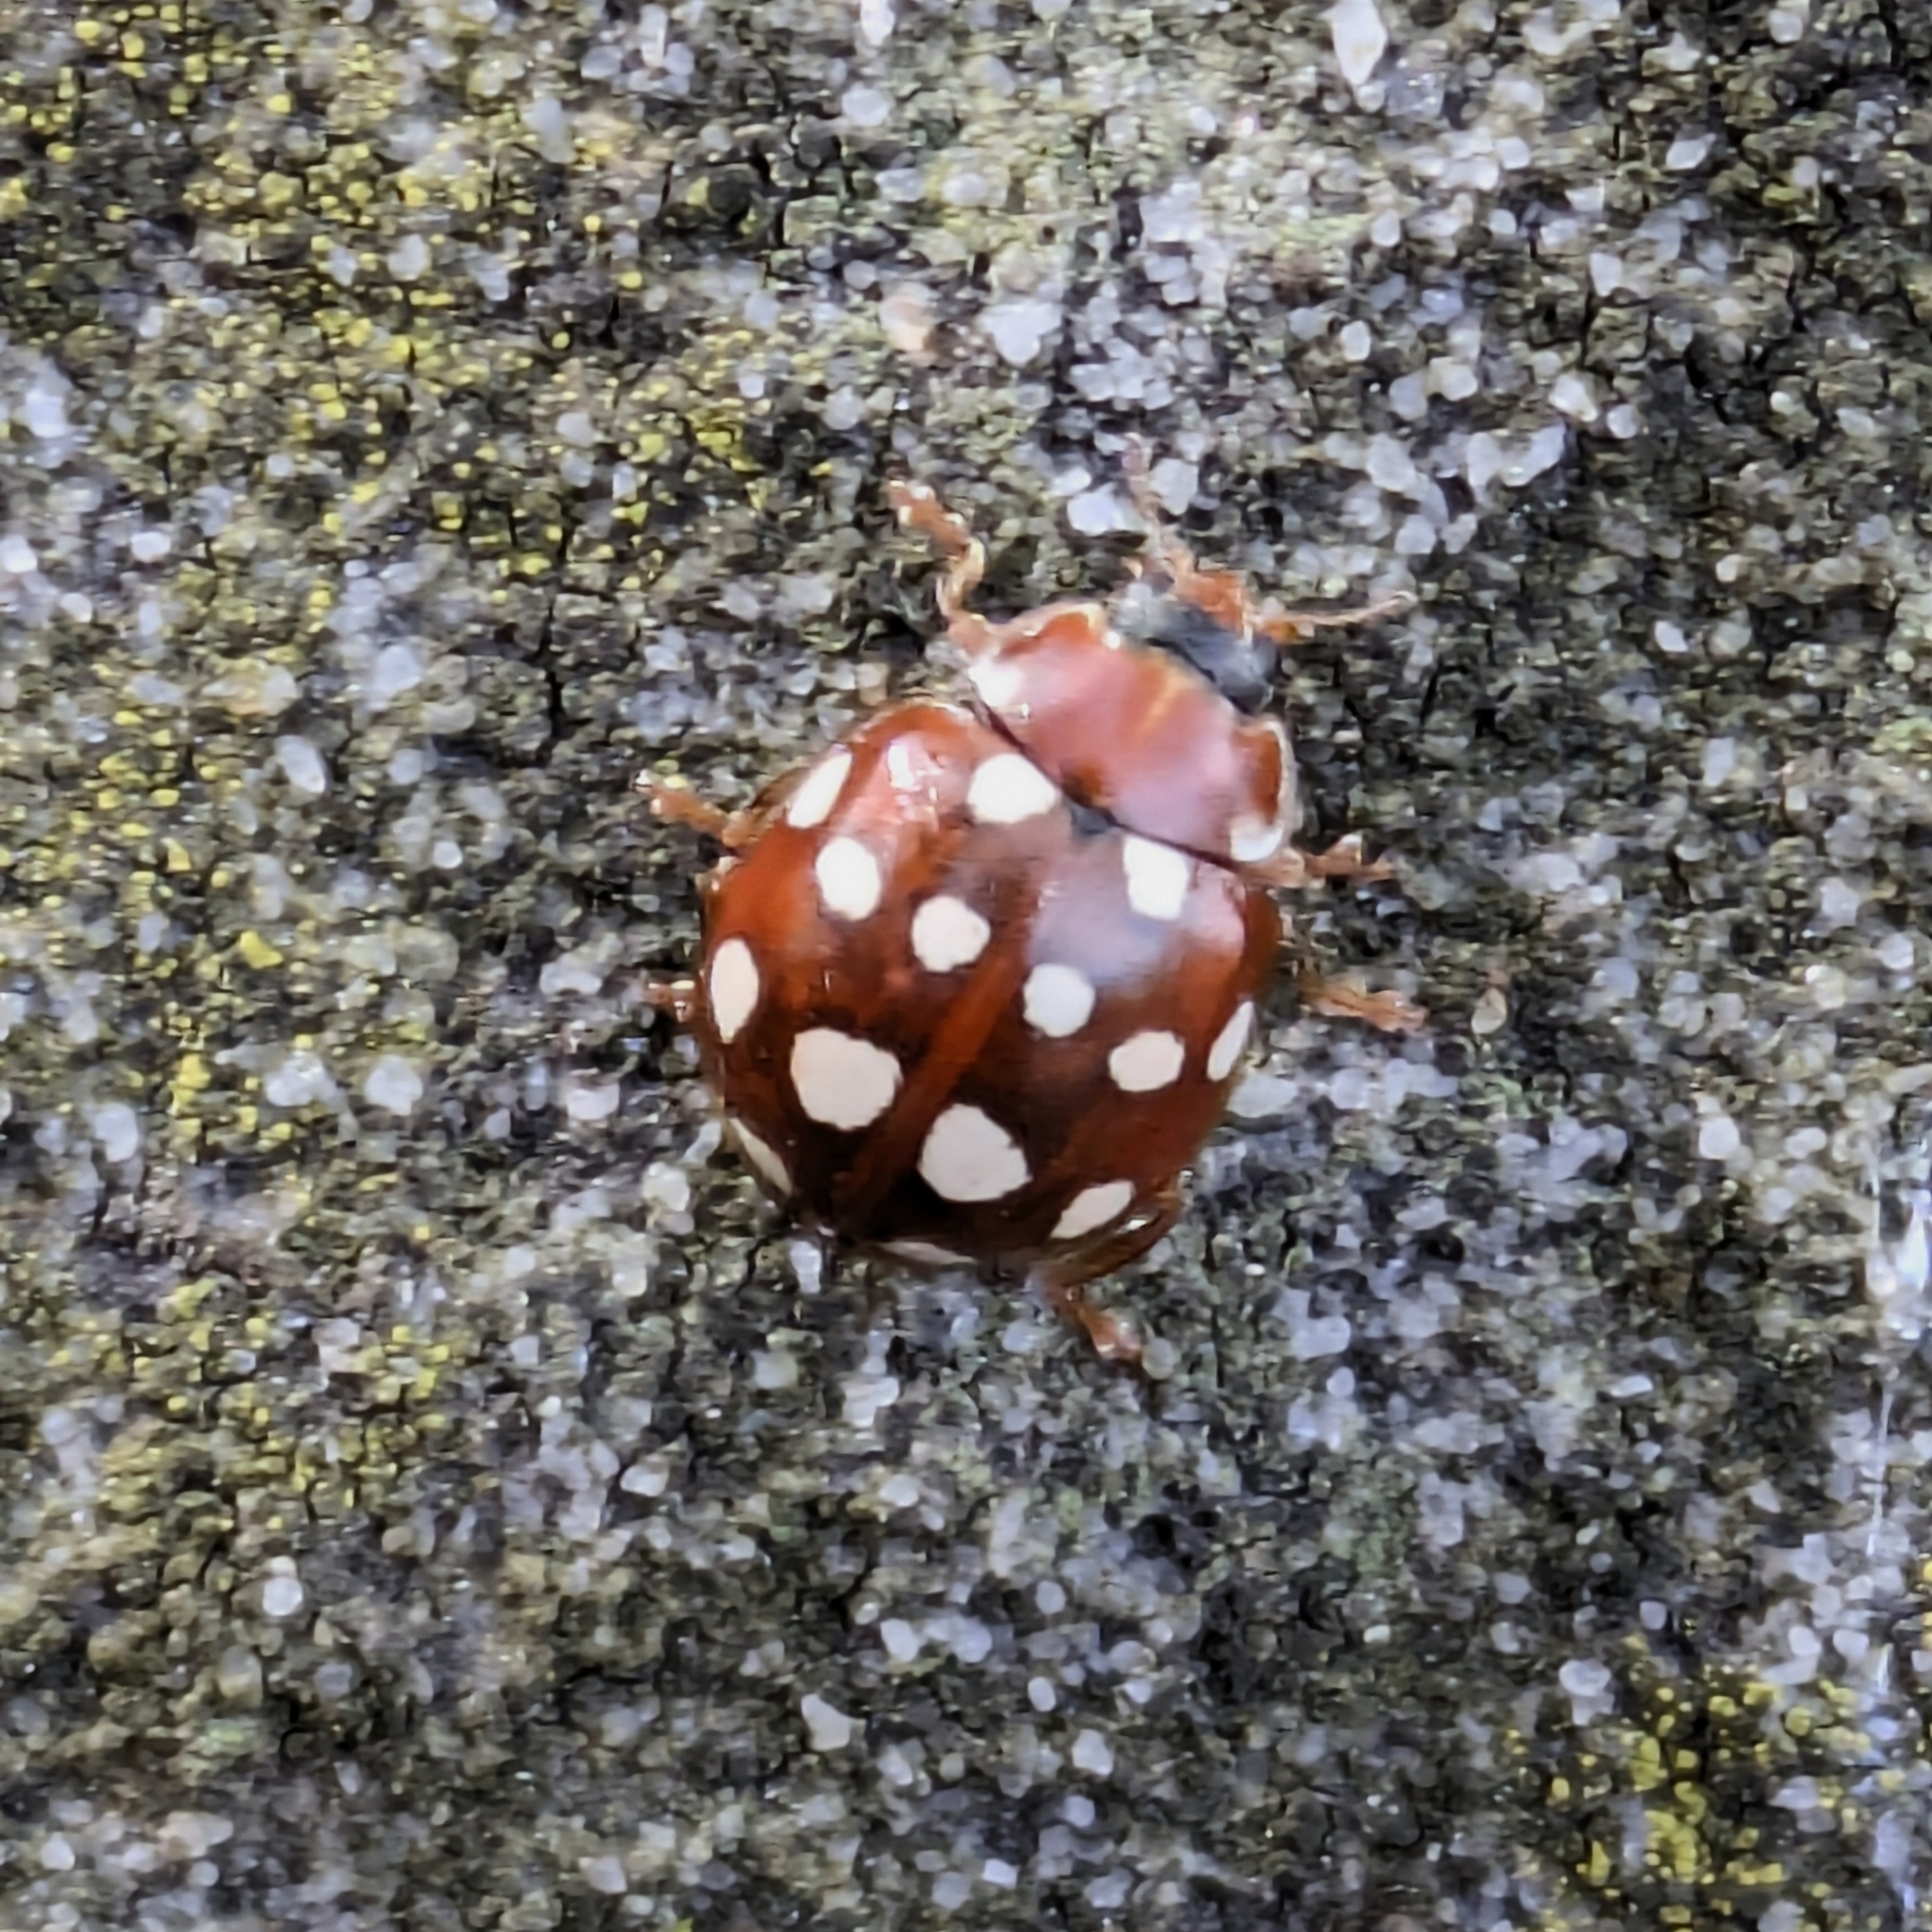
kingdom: Animalia
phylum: Arthropoda
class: Insecta
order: Coleoptera
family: Coccinellidae
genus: Calvia
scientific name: Calvia quatuordecimguttata
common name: Cream-spot ladybird
